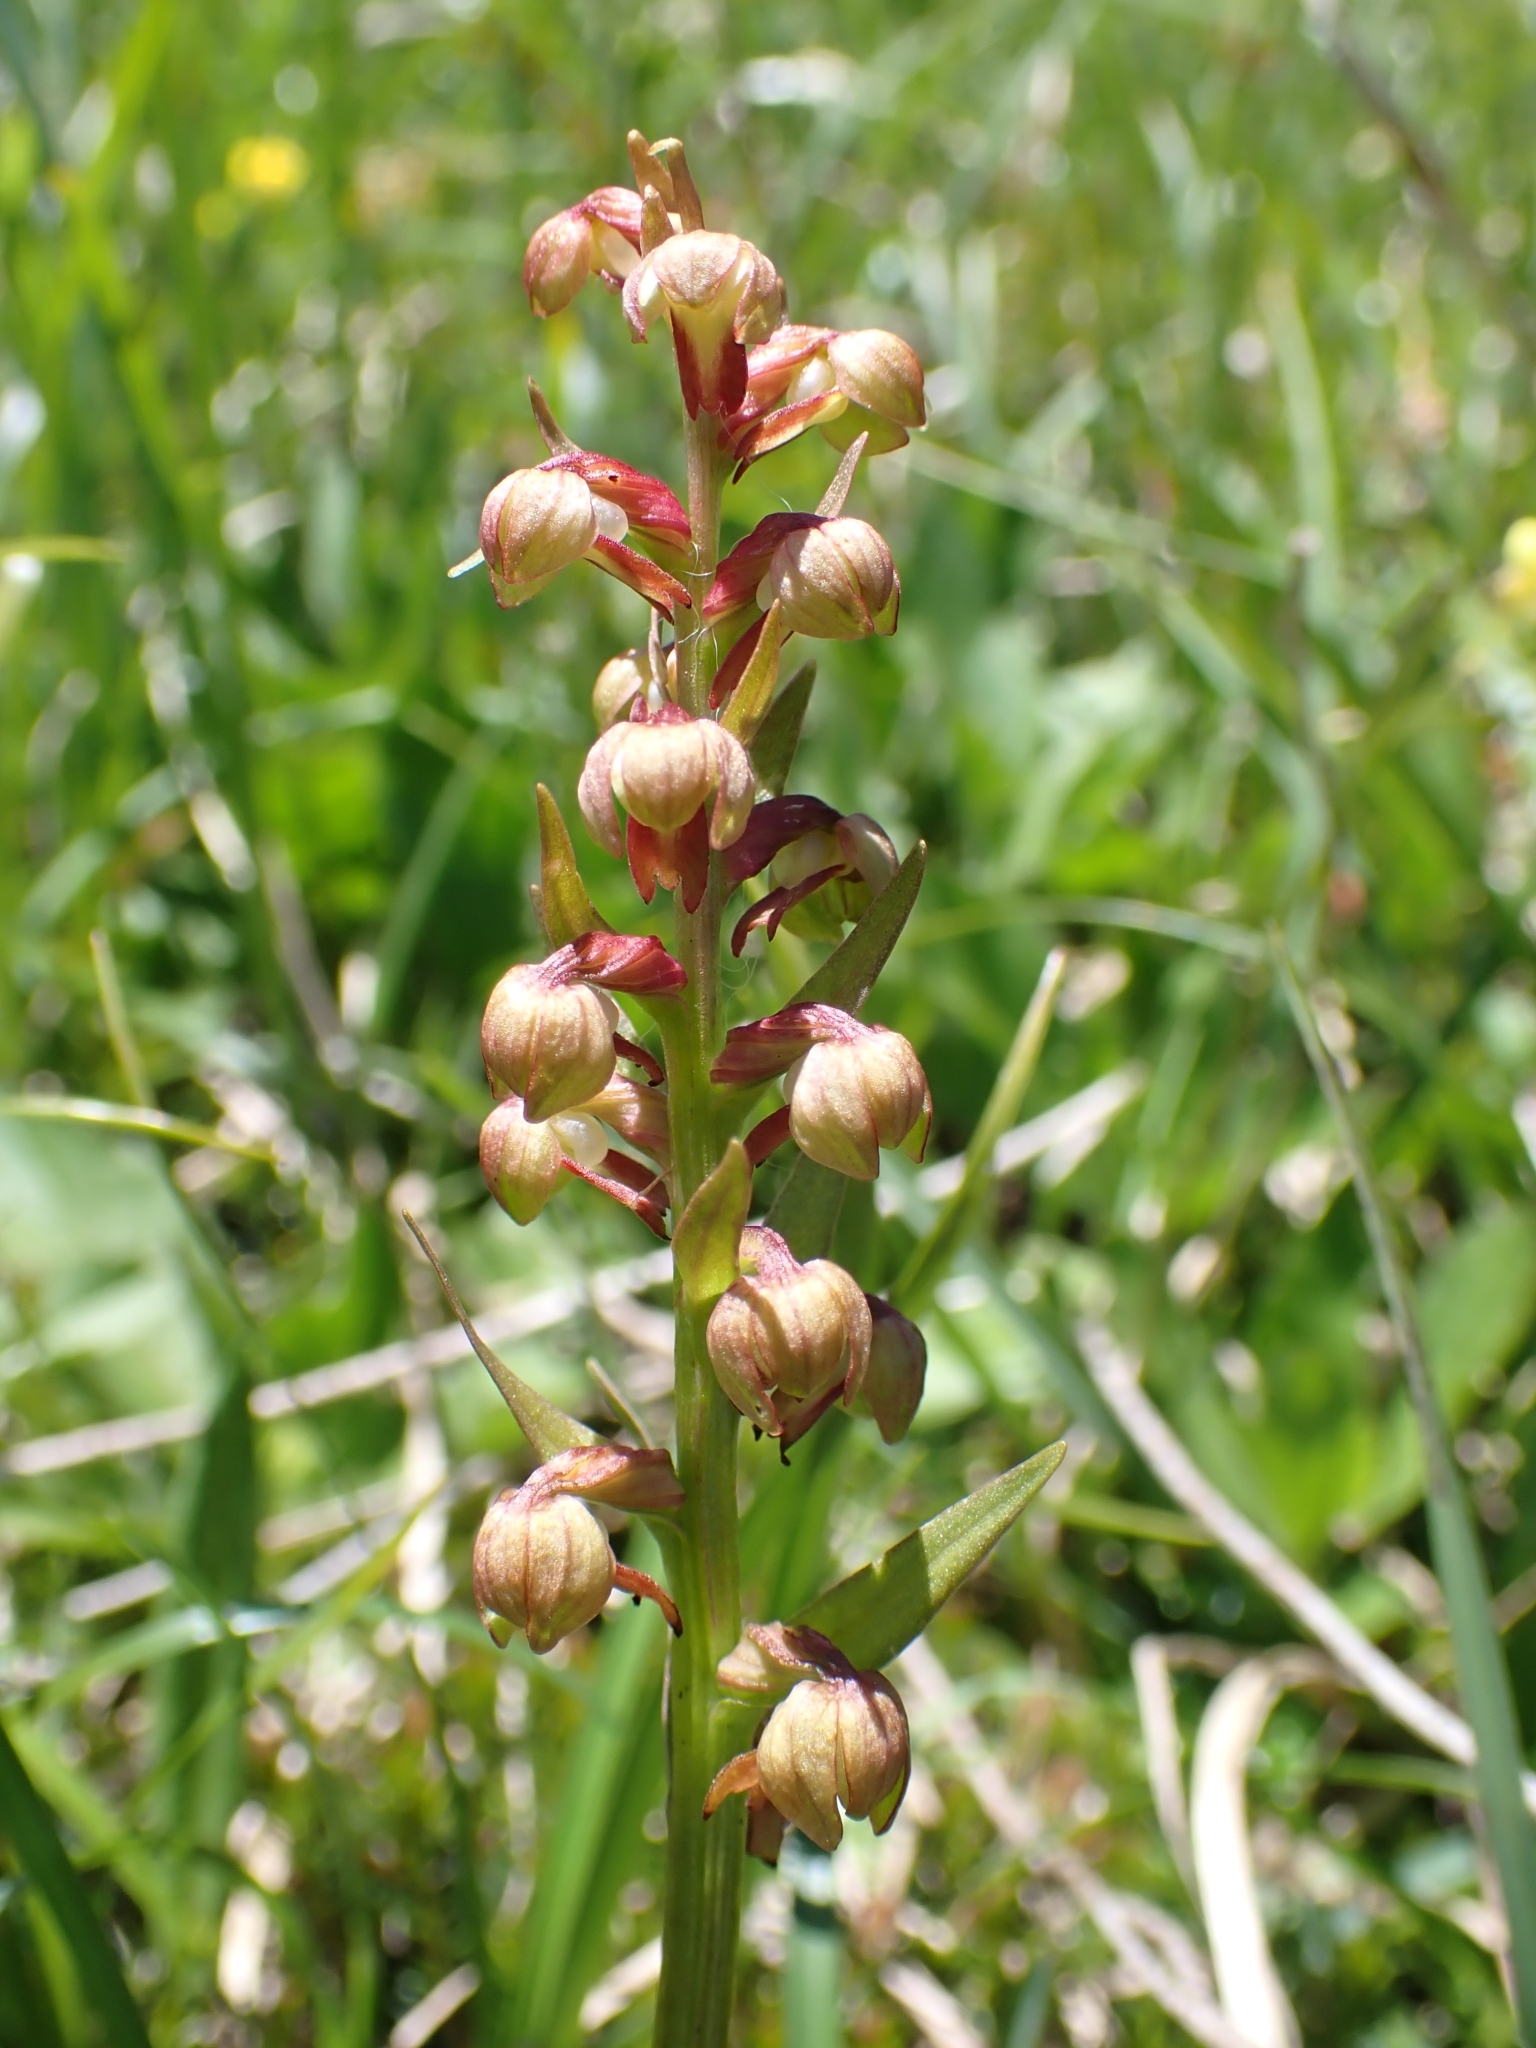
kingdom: Plantae
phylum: Tracheophyta
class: Liliopsida
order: Asparagales
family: Orchidaceae
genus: Dactylorhiza
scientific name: Dactylorhiza viridis
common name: Longbract frog orchid
